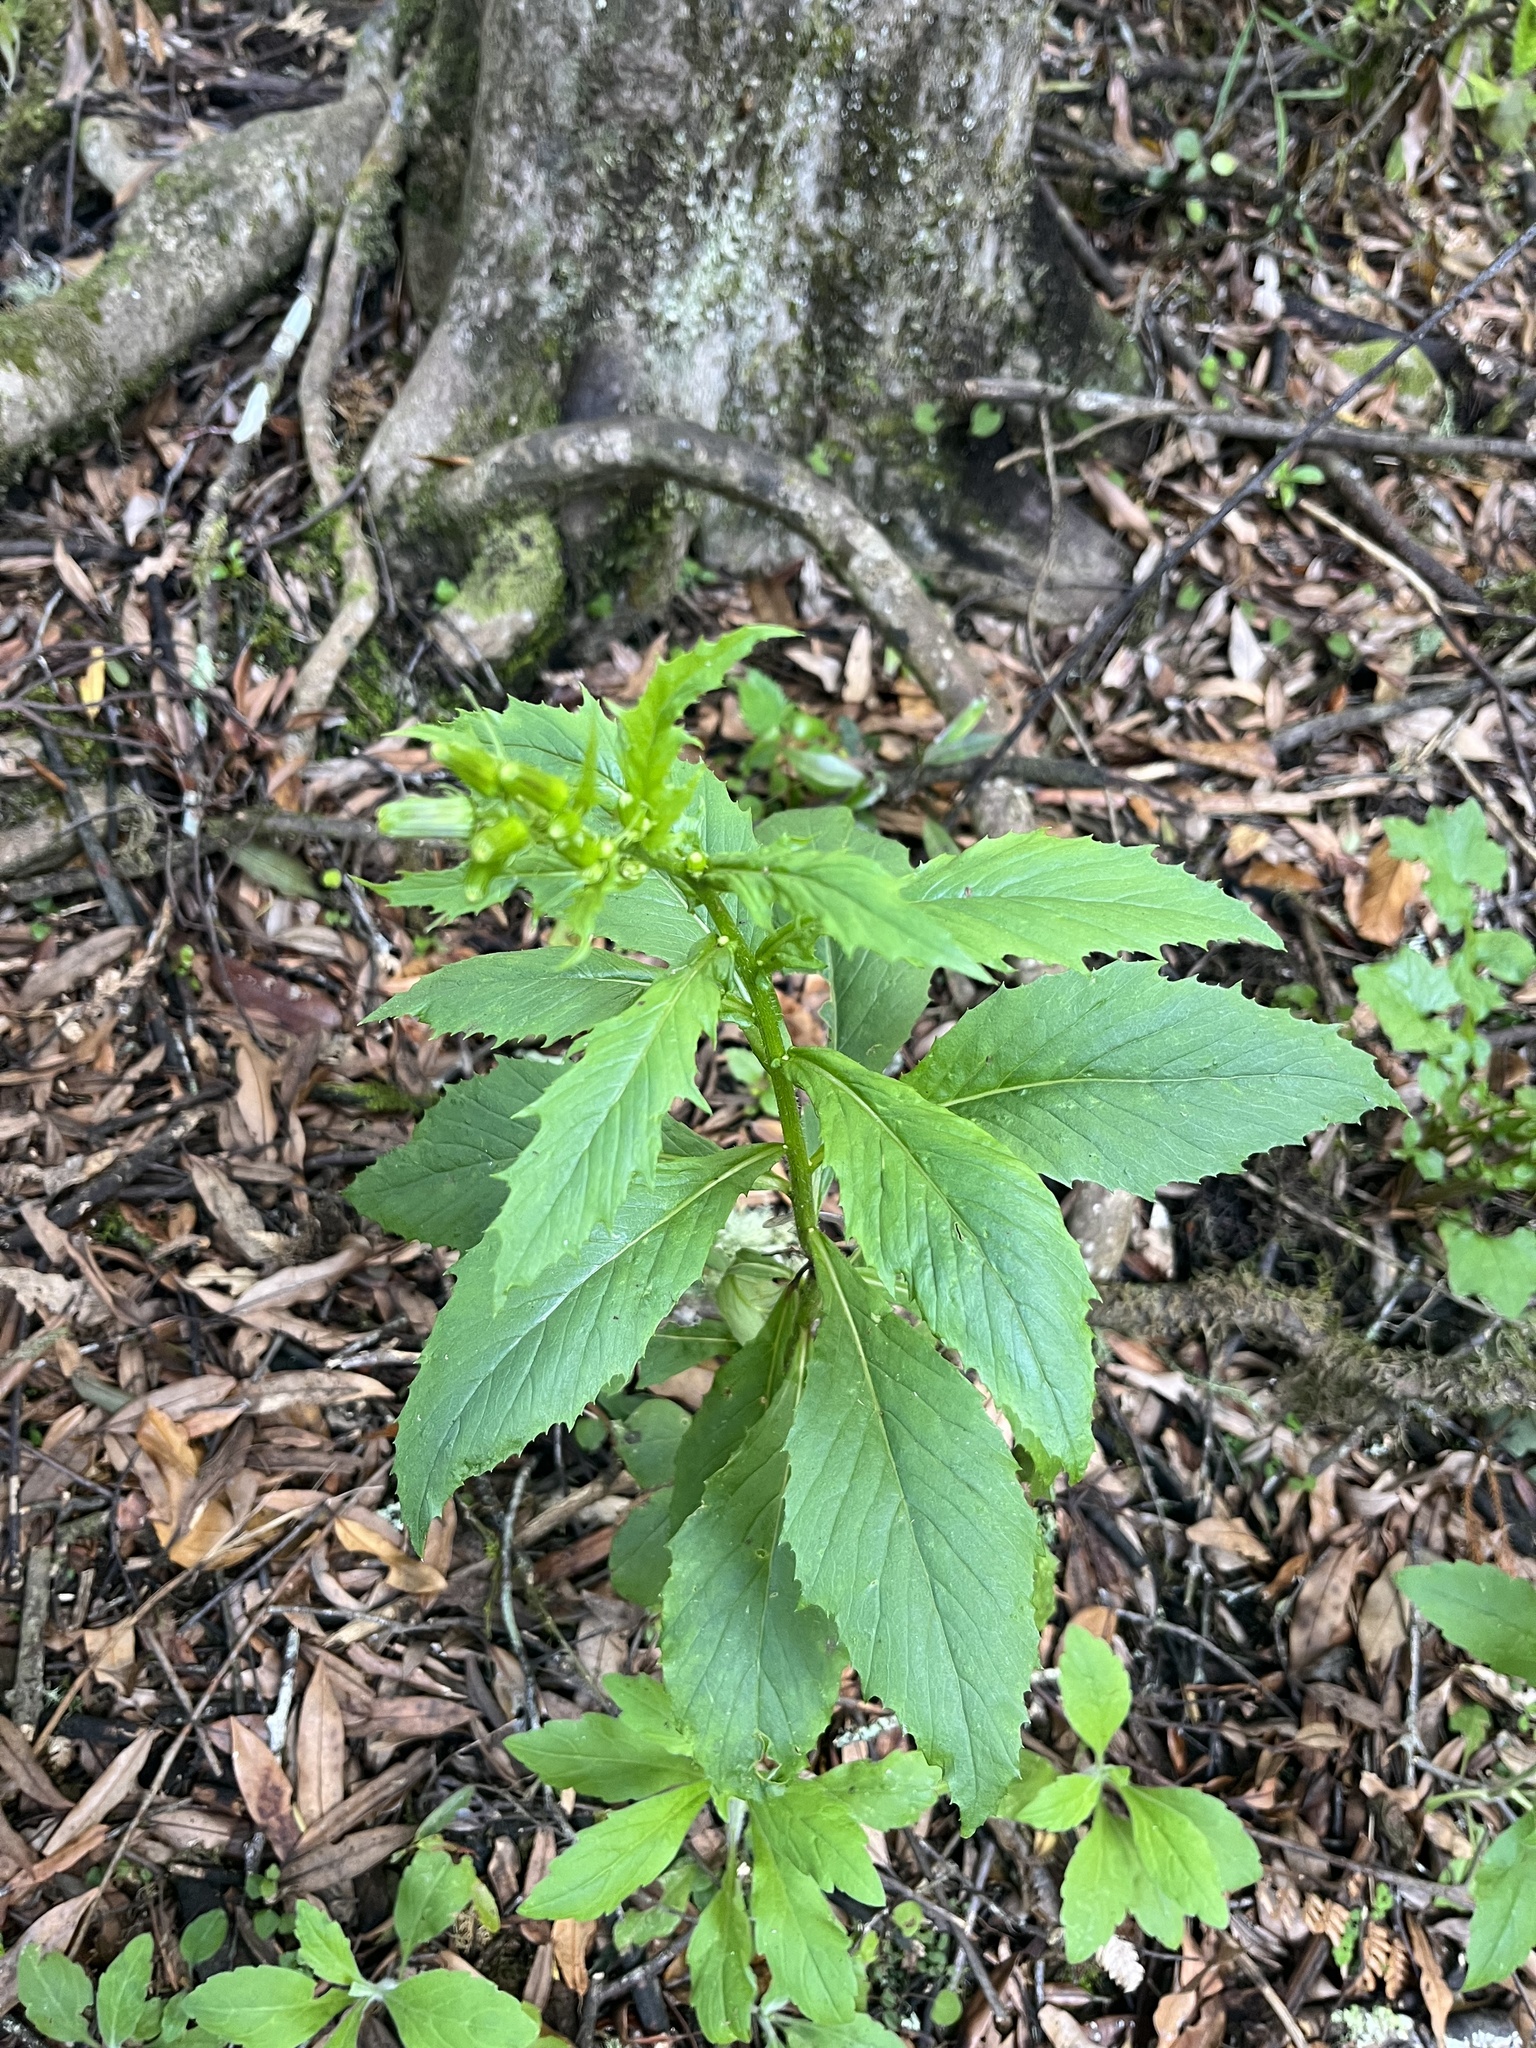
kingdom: Plantae
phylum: Tracheophyta
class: Magnoliopsida
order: Asterales
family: Asteraceae
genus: Erechtites
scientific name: Erechtites hieraciifolius
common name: American burnweed
